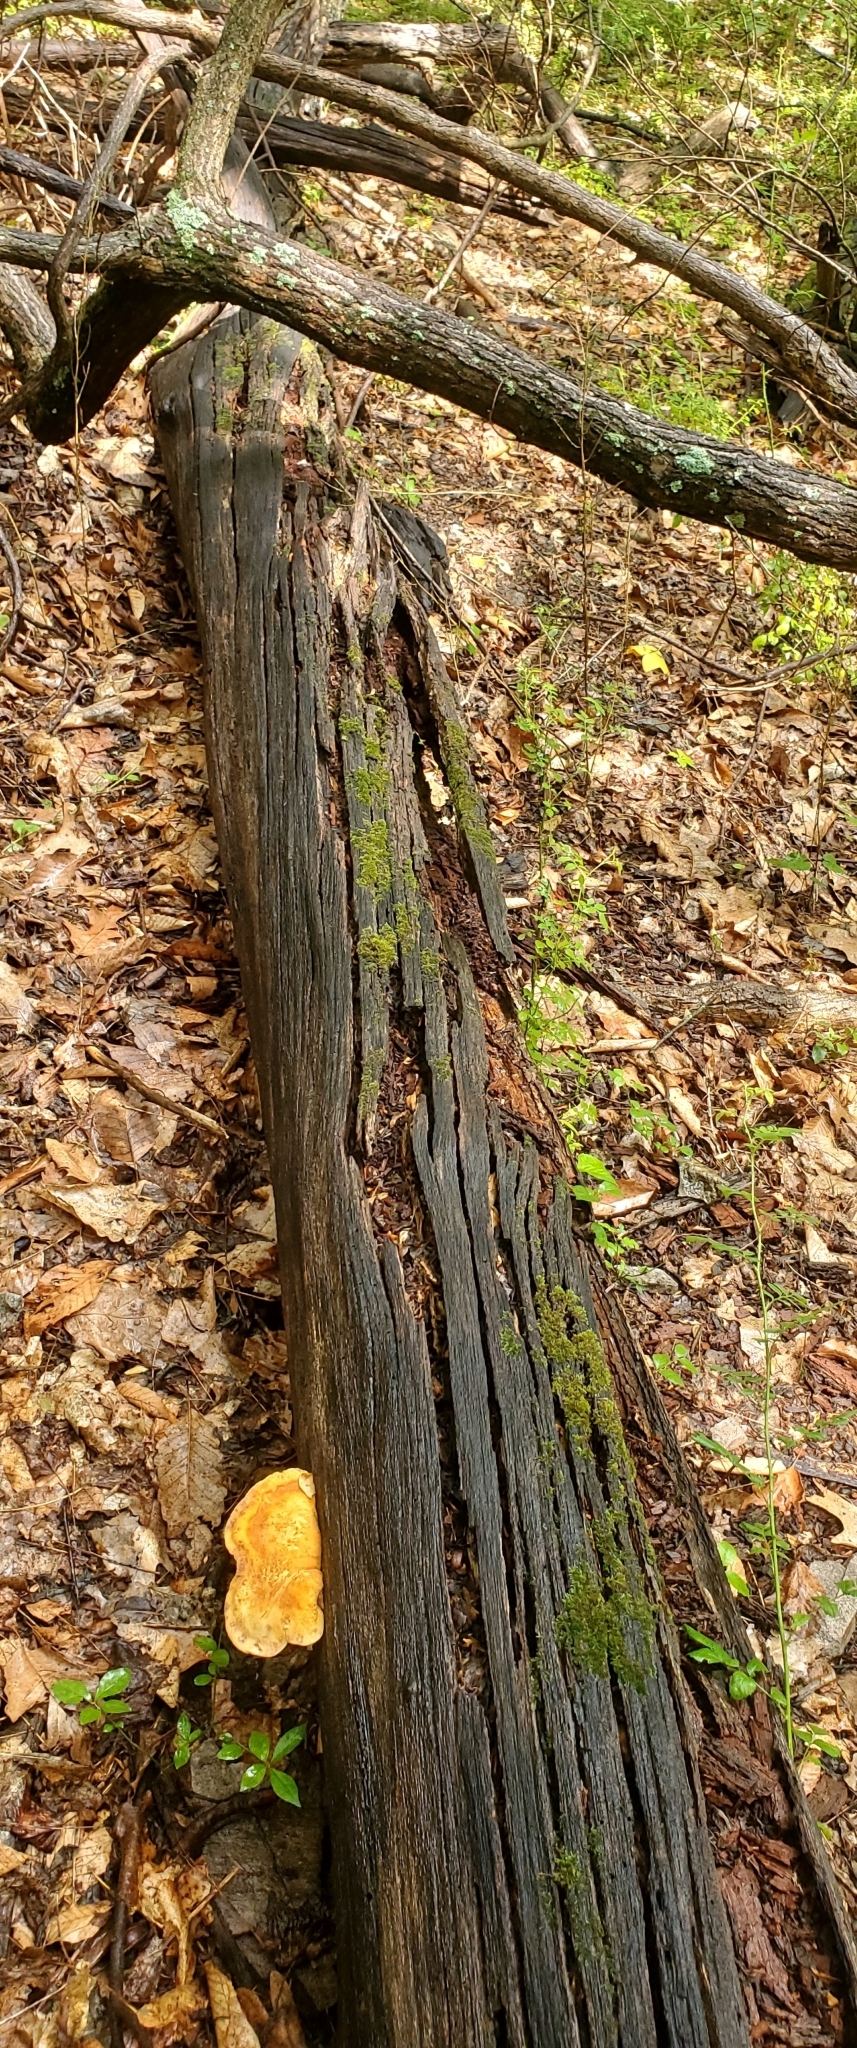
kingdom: Fungi
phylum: Basidiomycota
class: Agaricomycetes
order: Polyporales
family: Fomitopsidaceae
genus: Fomitopsis
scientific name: Fomitopsis
